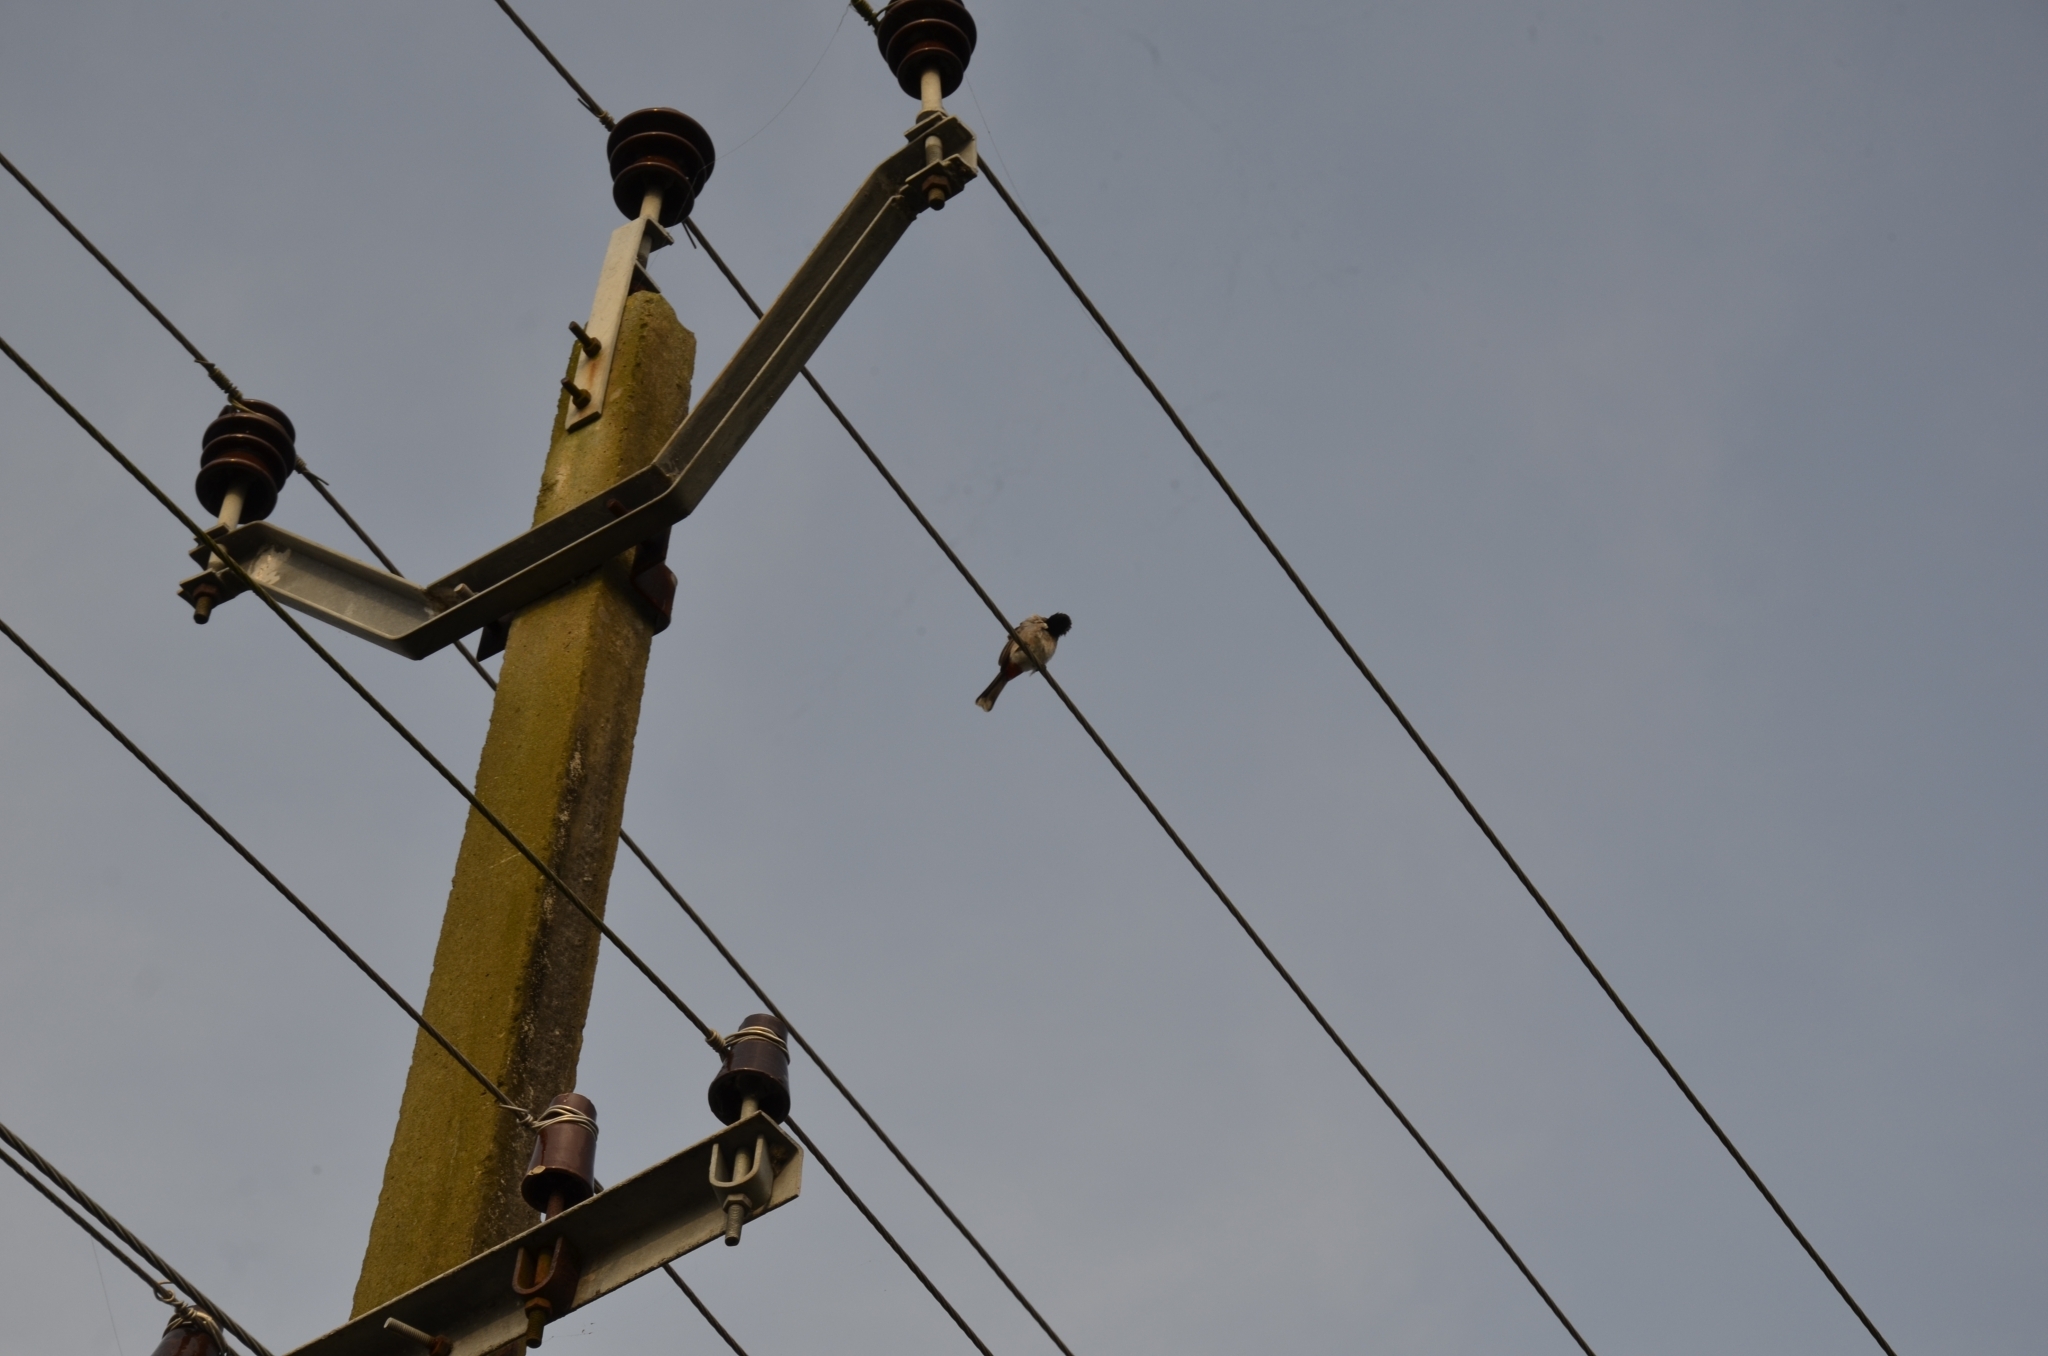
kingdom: Animalia
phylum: Chordata
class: Aves
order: Passeriformes
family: Pycnonotidae
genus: Pycnonotus
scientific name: Pycnonotus cafer
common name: Red-vented bulbul
